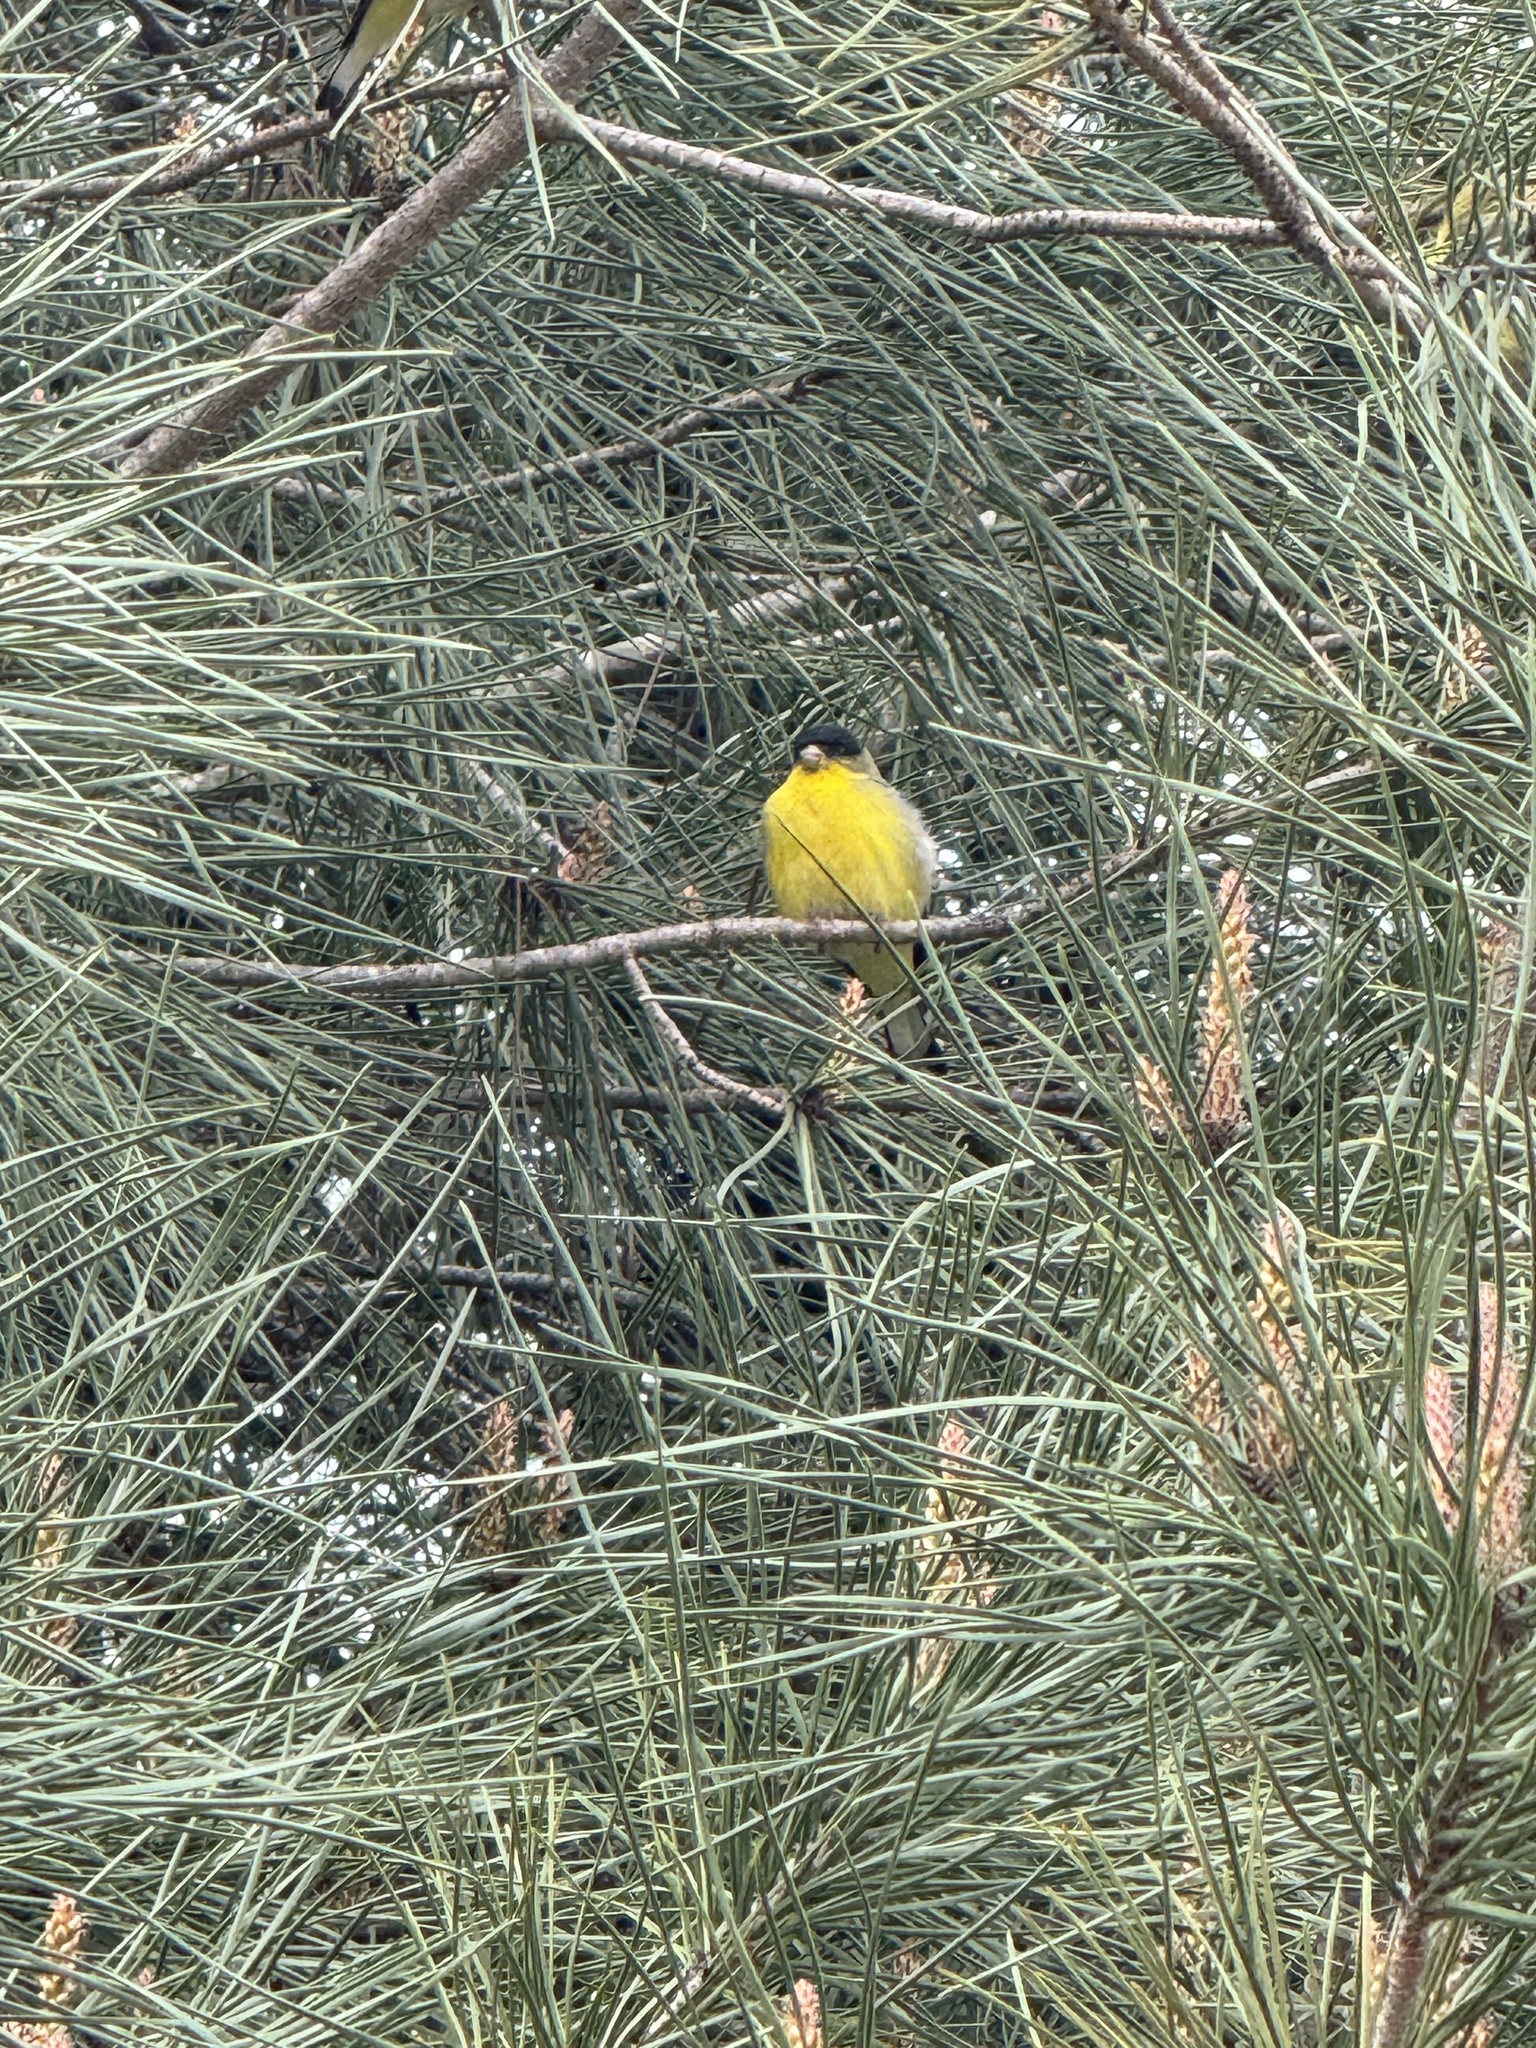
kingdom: Animalia
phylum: Chordata
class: Aves
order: Passeriformes
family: Fringillidae
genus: Spinus
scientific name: Spinus psaltria
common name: Lesser goldfinch
